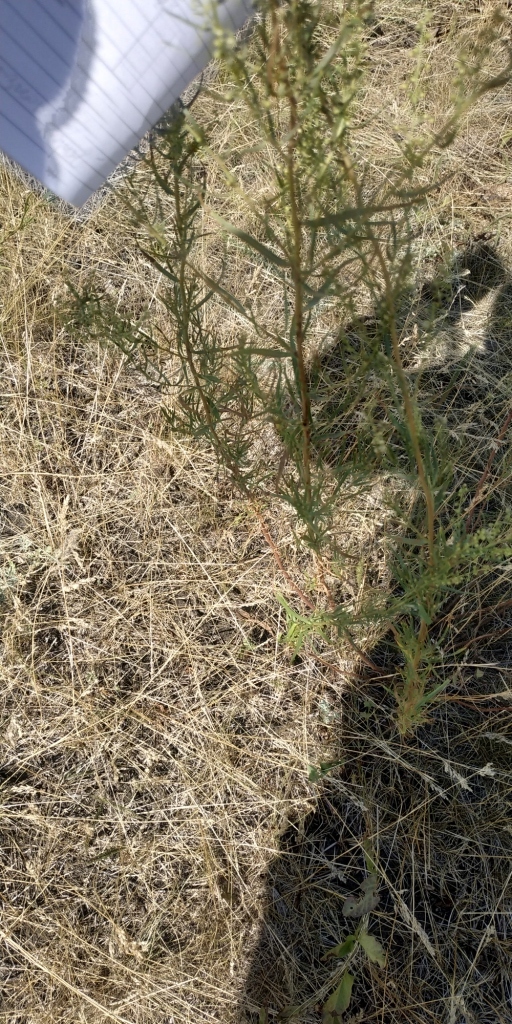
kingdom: Plantae
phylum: Tracheophyta
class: Magnoliopsida
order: Asterales
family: Asteraceae
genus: Artemisia
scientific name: Artemisia dracunculus
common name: Tarragon
